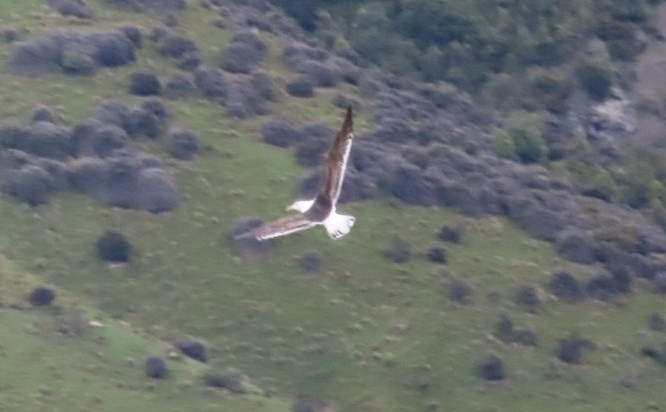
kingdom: Animalia
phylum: Chordata
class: Aves
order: Charadriiformes
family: Laridae
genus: Larus
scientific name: Larus dominicanus
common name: Kelp gull
